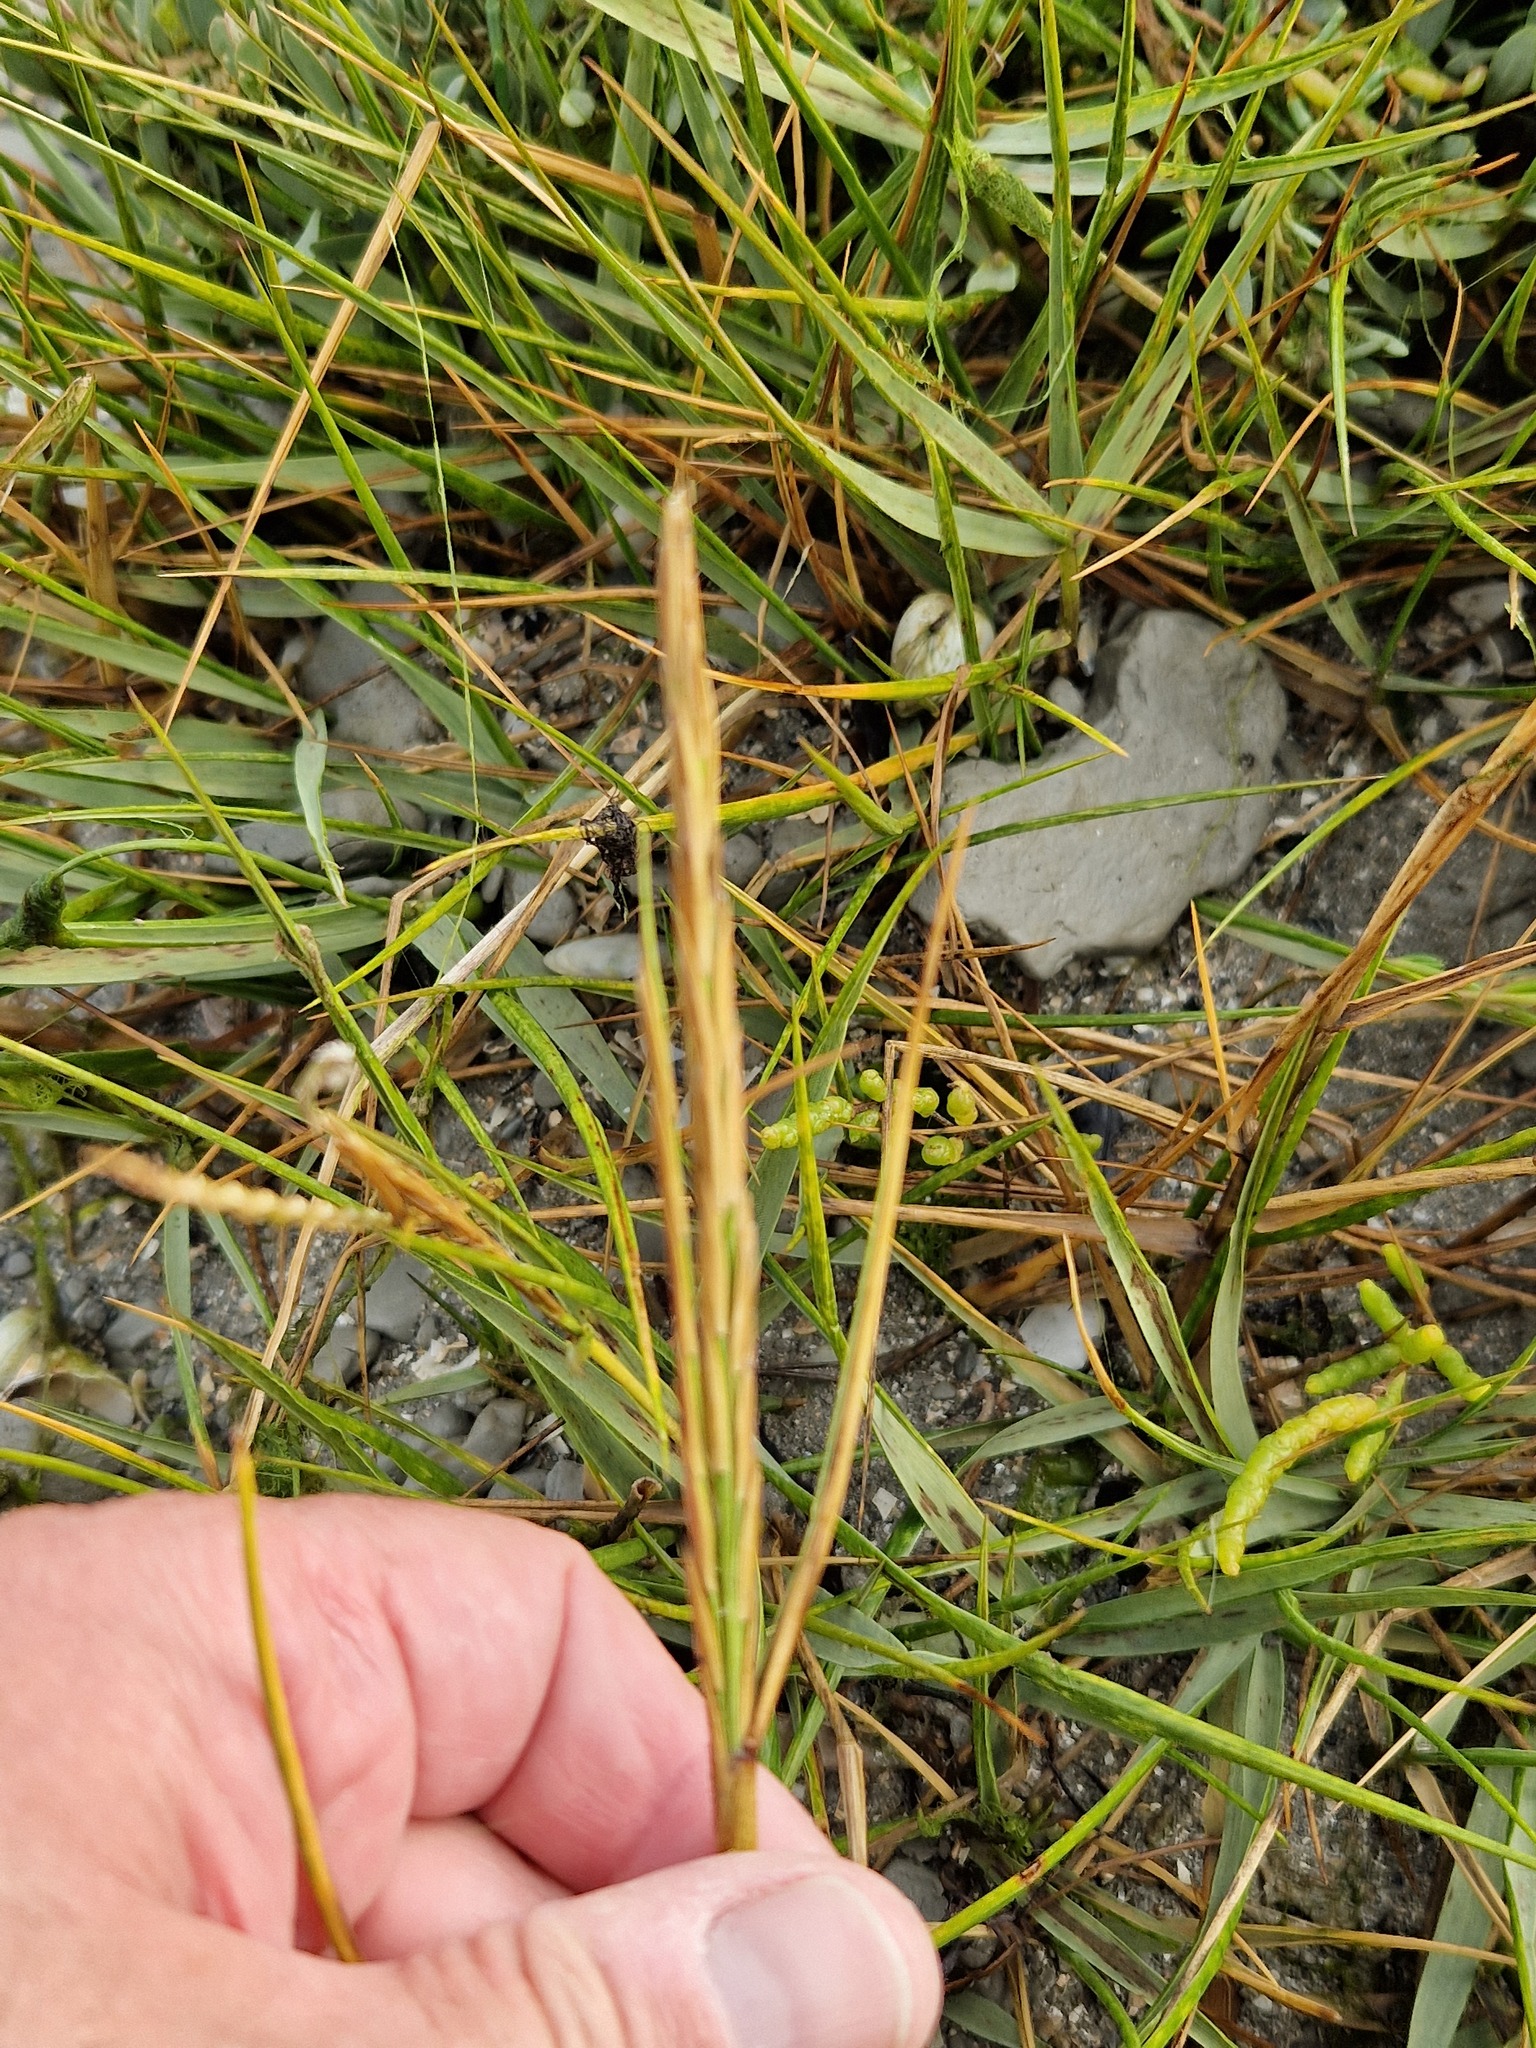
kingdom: Plantae
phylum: Tracheophyta
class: Liliopsida
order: Poales
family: Poaceae
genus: Sporobolus
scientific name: Sporobolus anglicus
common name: English cordgrass
